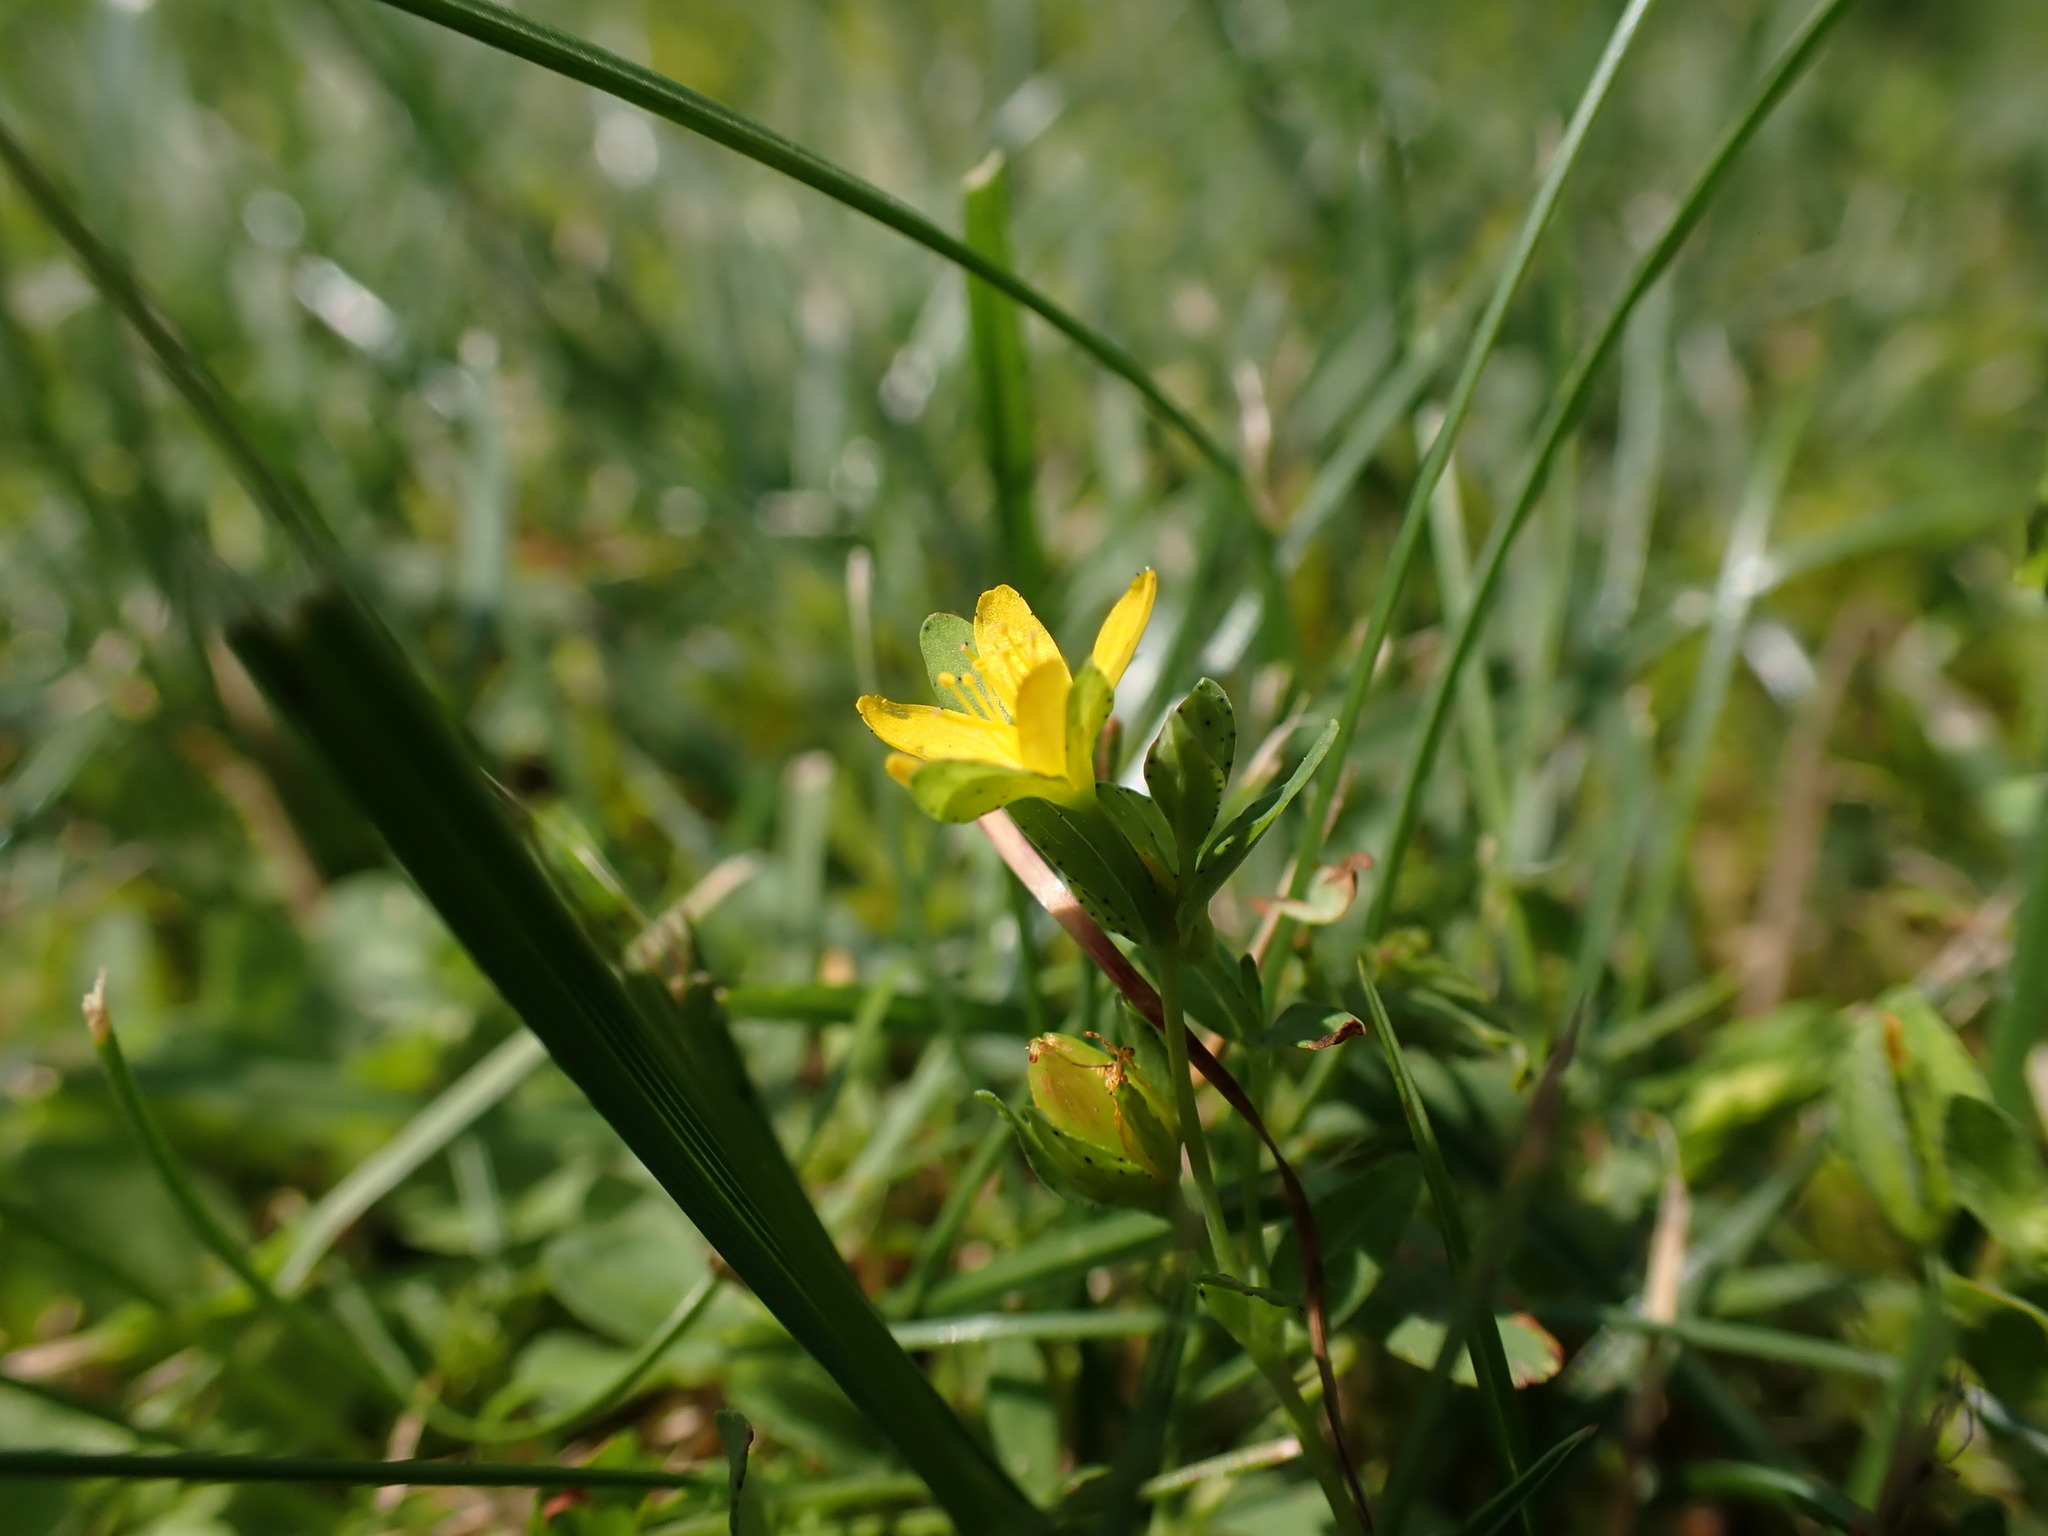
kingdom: Plantae
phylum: Tracheophyta
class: Magnoliopsida
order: Malpighiales
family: Hypericaceae
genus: Hypericum
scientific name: Hypericum humifusum
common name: Trailing st. john's-wort
